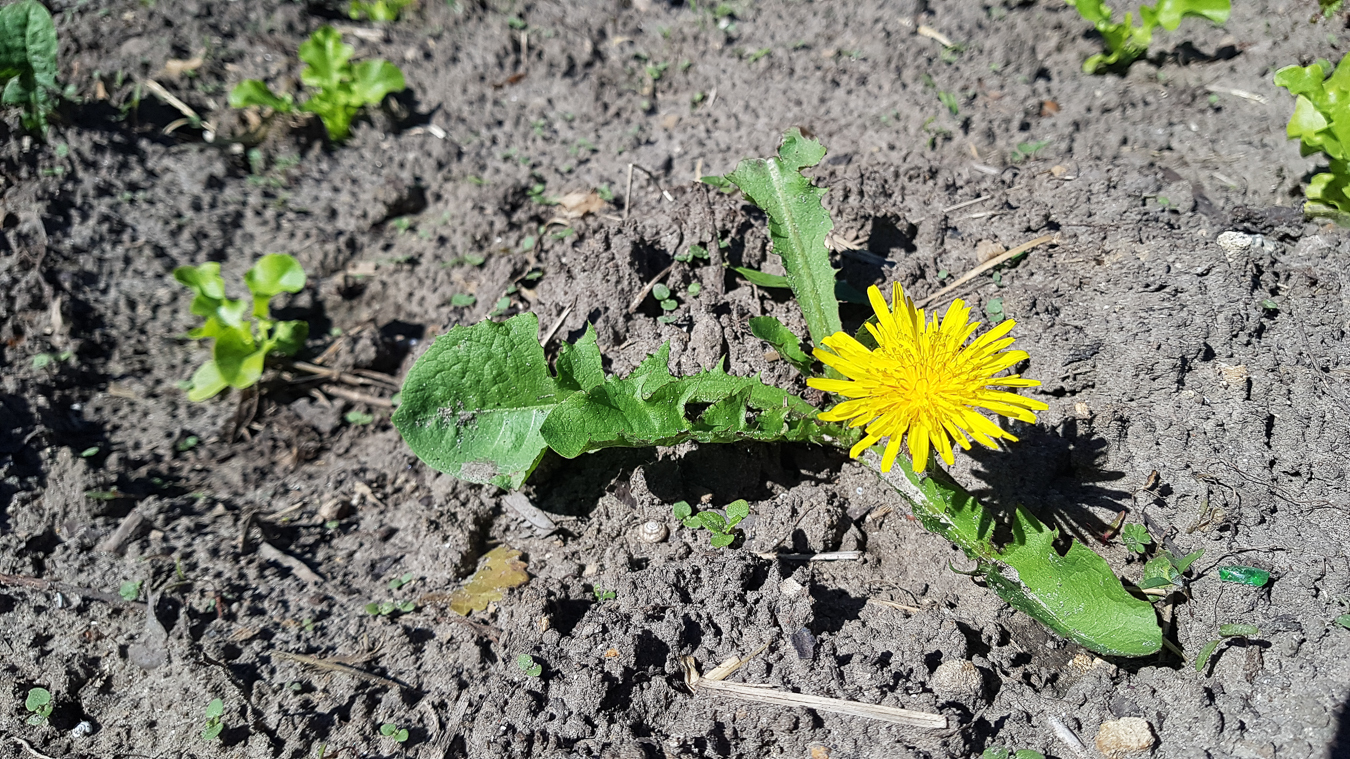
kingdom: Plantae
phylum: Tracheophyta
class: Magnoliopsida
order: Asterales
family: Asteraceae
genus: Taraxacum
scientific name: Taraxacum officinale
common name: Common dandelion
